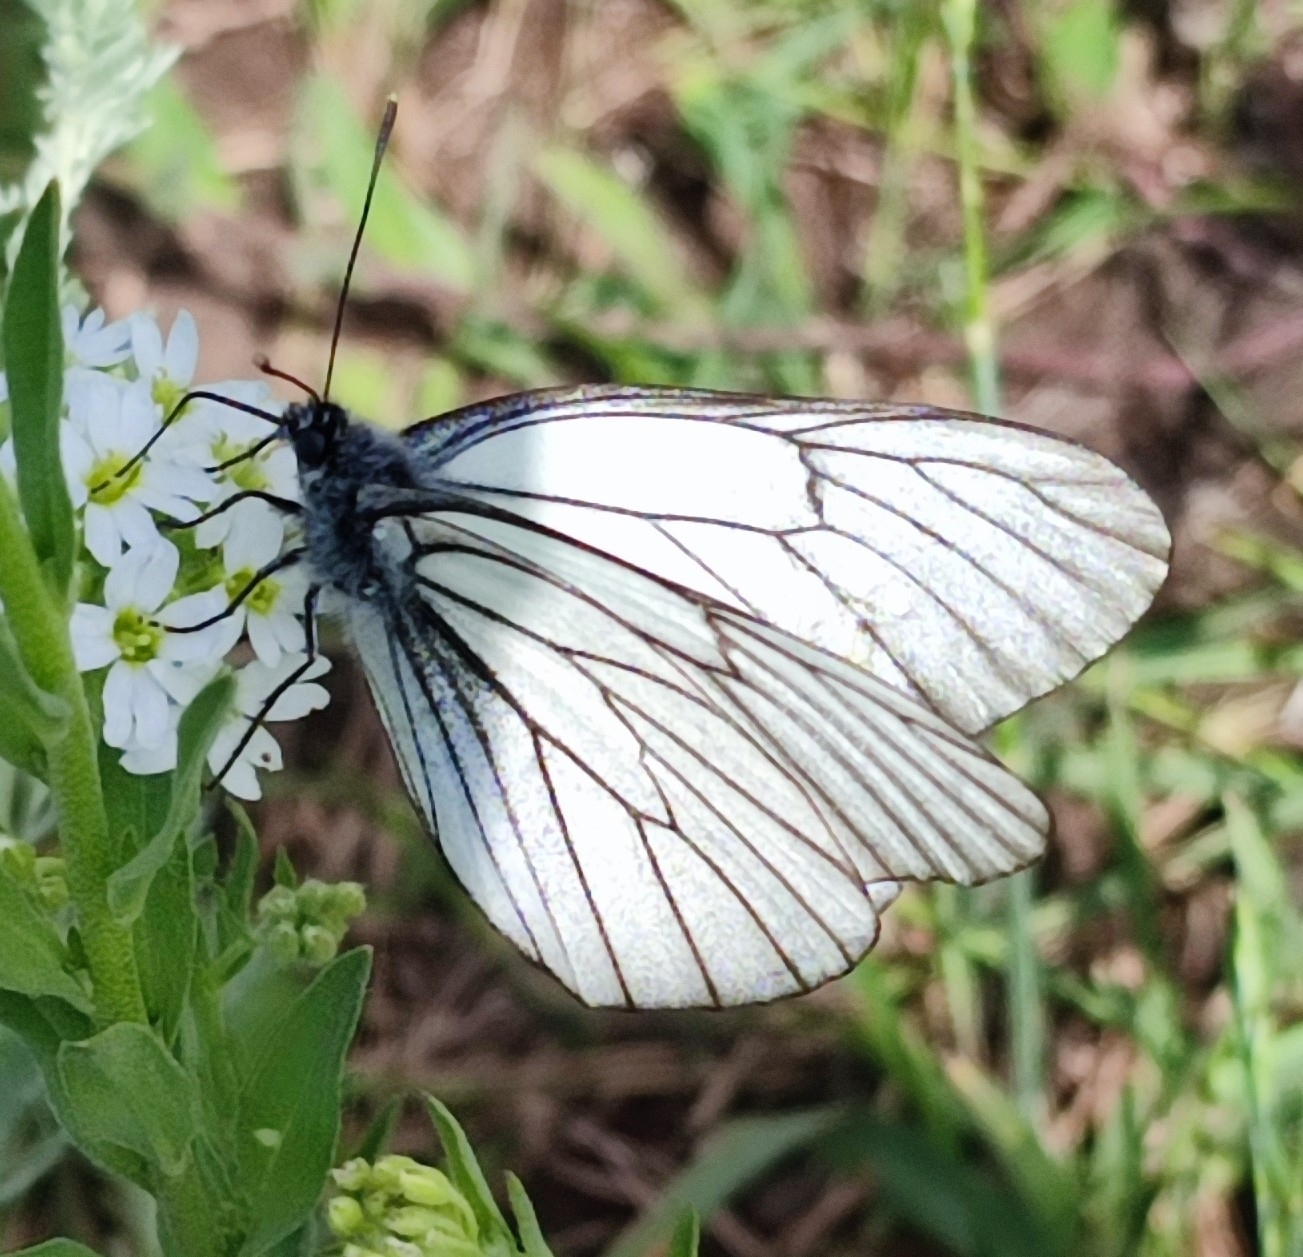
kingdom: Animalia
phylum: Arthropoda
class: Insecta
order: Lepidoptera
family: Pieridae
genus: Aporia
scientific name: Aporia crataegi
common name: Black-veined white
